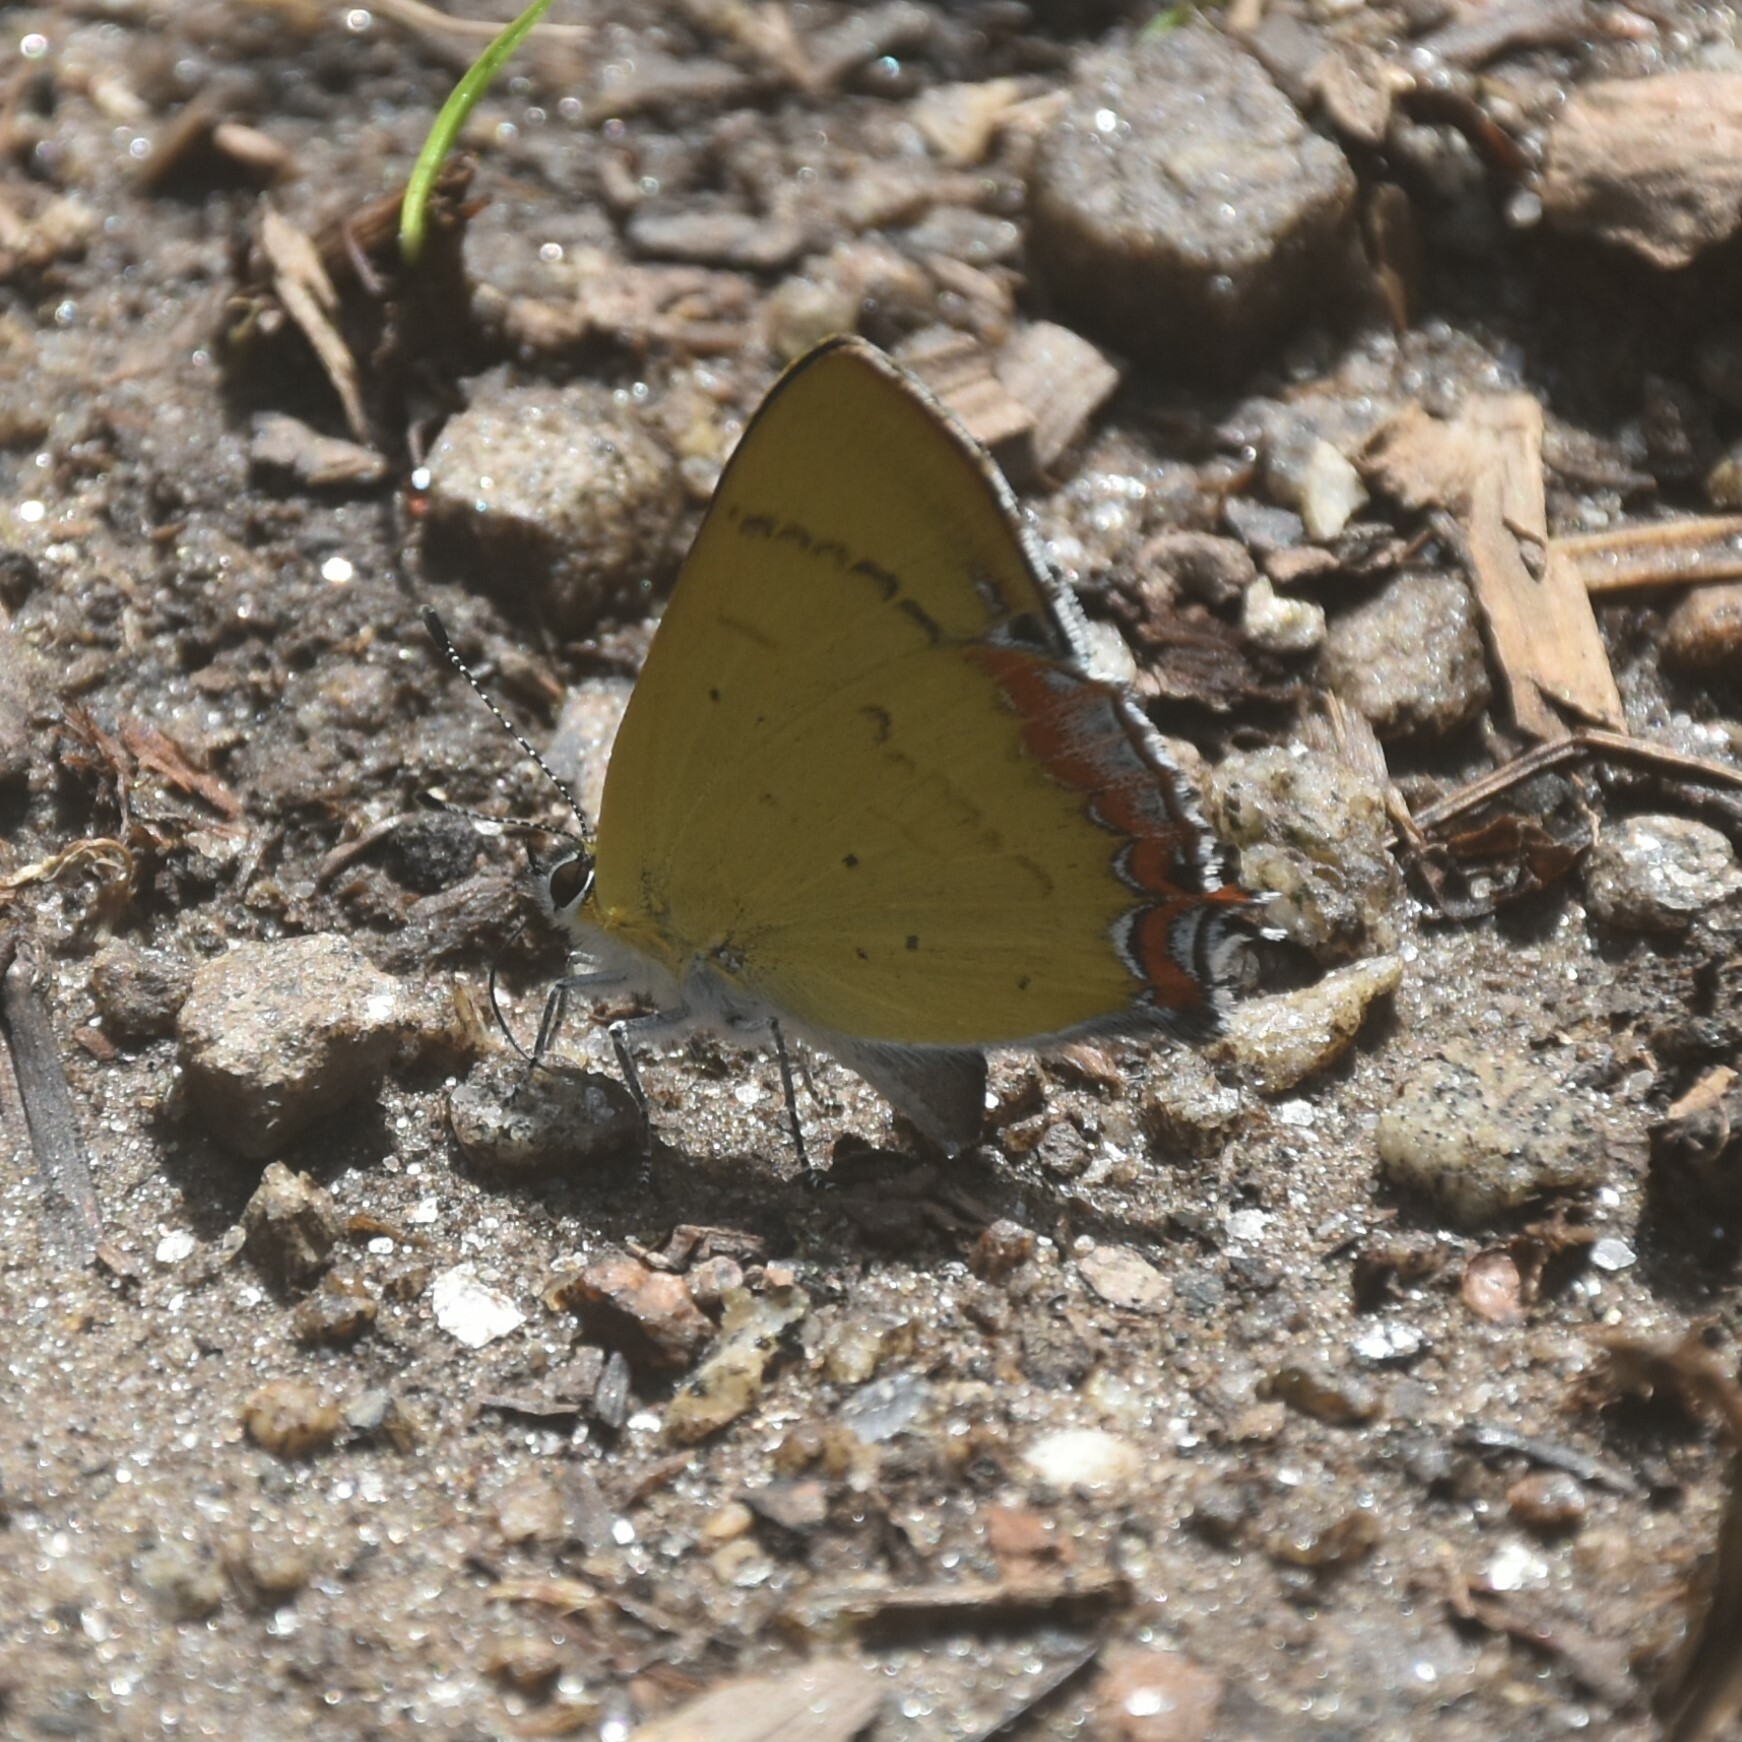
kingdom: Animalia
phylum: Arthropoda
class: Insecta
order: Lepidoptera
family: Lycaenidae
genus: Heliophorus
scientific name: Heliophorus
